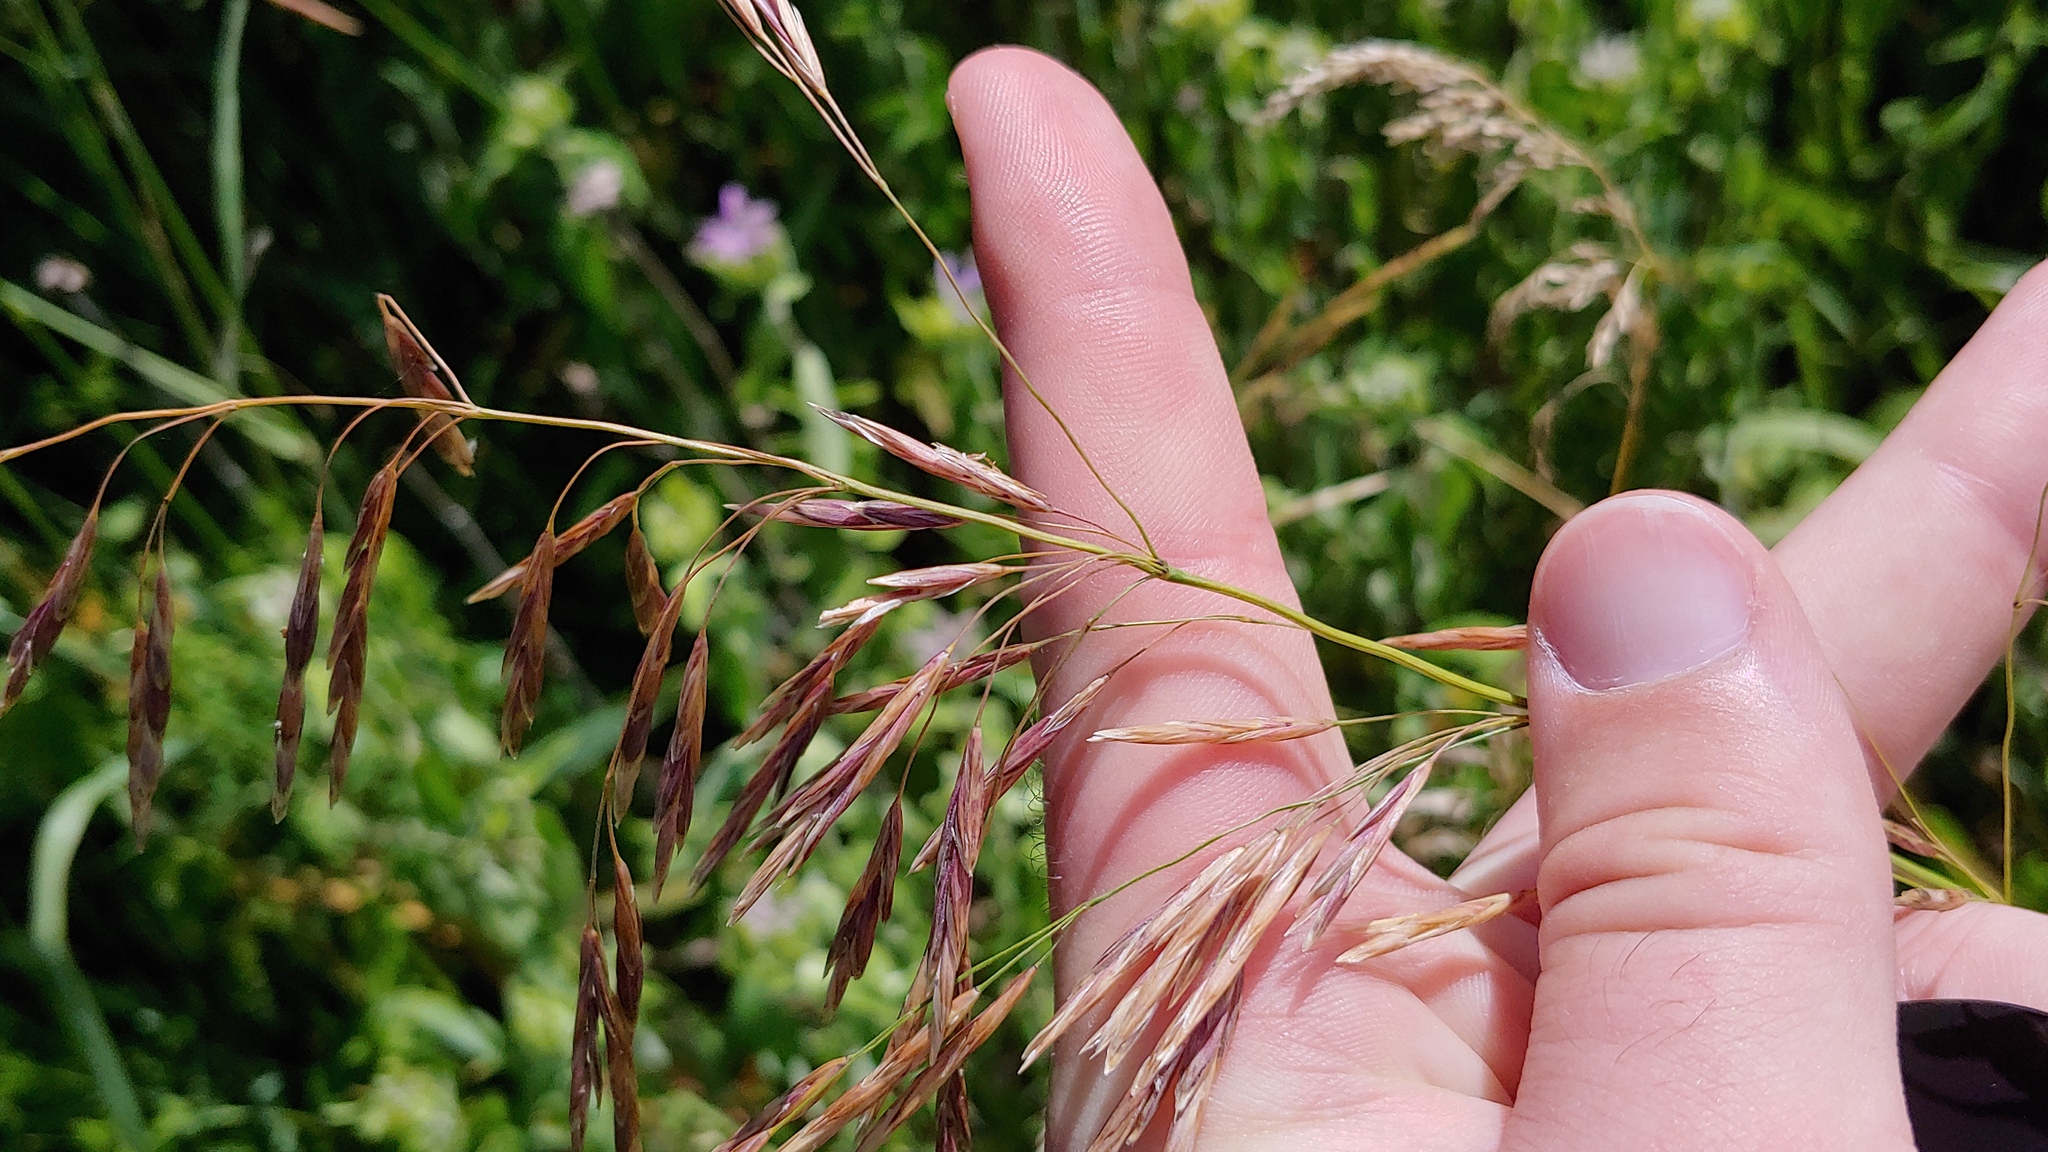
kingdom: Plantae
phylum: Tracheophyta
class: Liliopsida
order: Poales
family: Poaceae
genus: Bromus
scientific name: Bromus inermis
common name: Smooth brome
